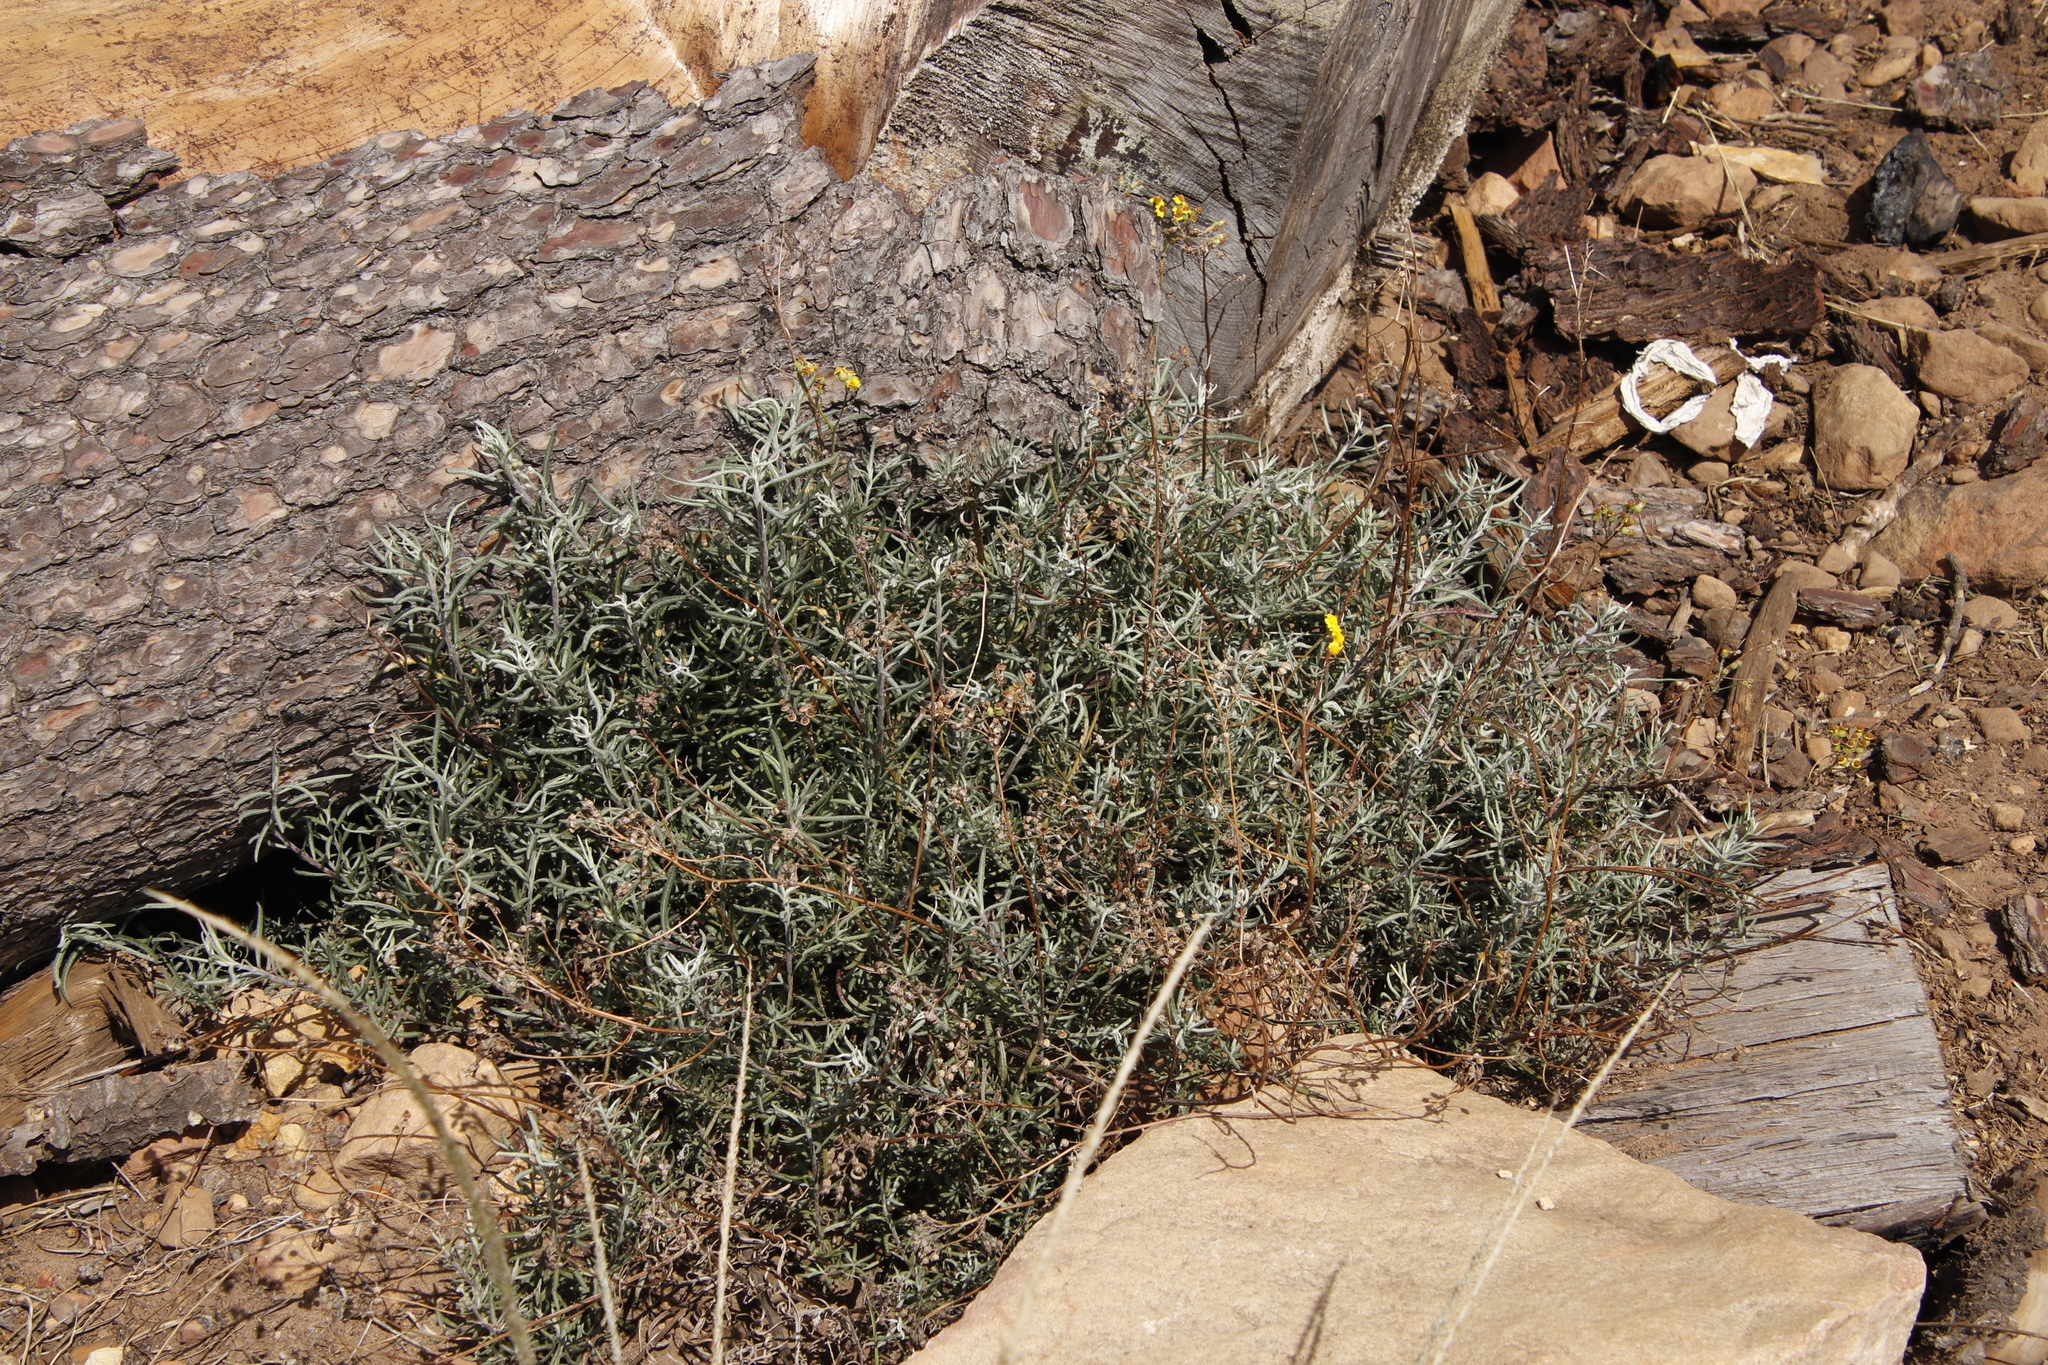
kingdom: Plantae
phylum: Tracheophyta
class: Magnoliopsida
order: Asterales
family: Asteraceae
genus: Senecio
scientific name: Senecio pterophorus
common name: Shoddy ragwort
